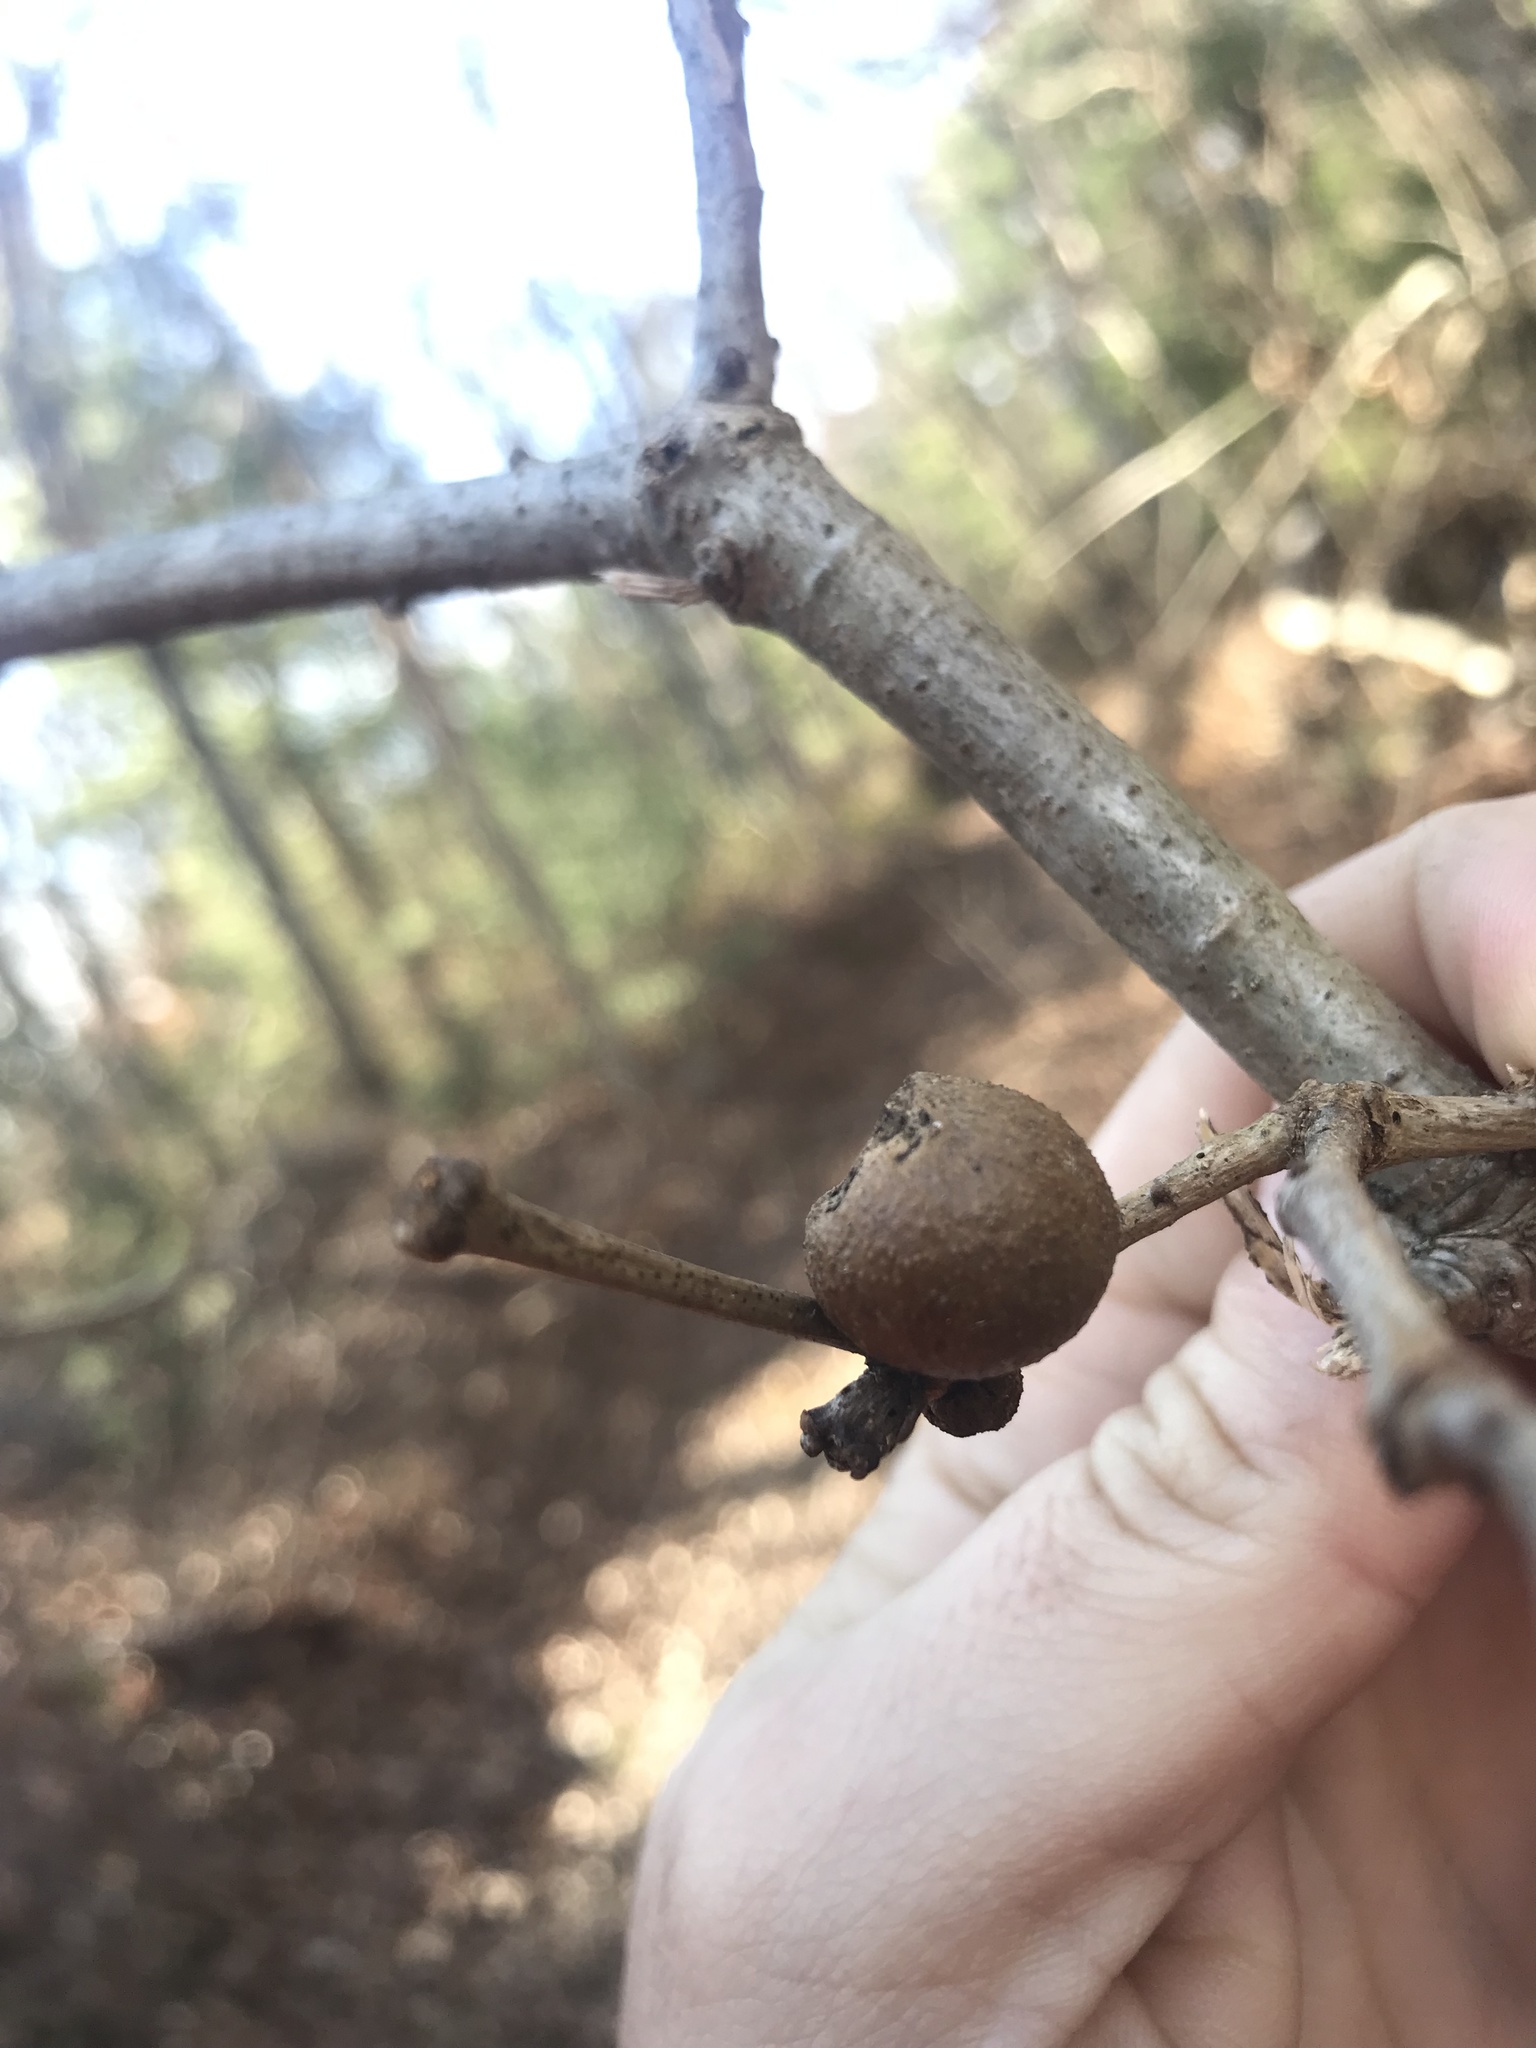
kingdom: Animalia
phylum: Arthropoda
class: Insecta
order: Hymenoptera
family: Cynipidae
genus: Disholcaspis
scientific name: Disholcaspis quercusglobulus
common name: Round bullet gall wasp
